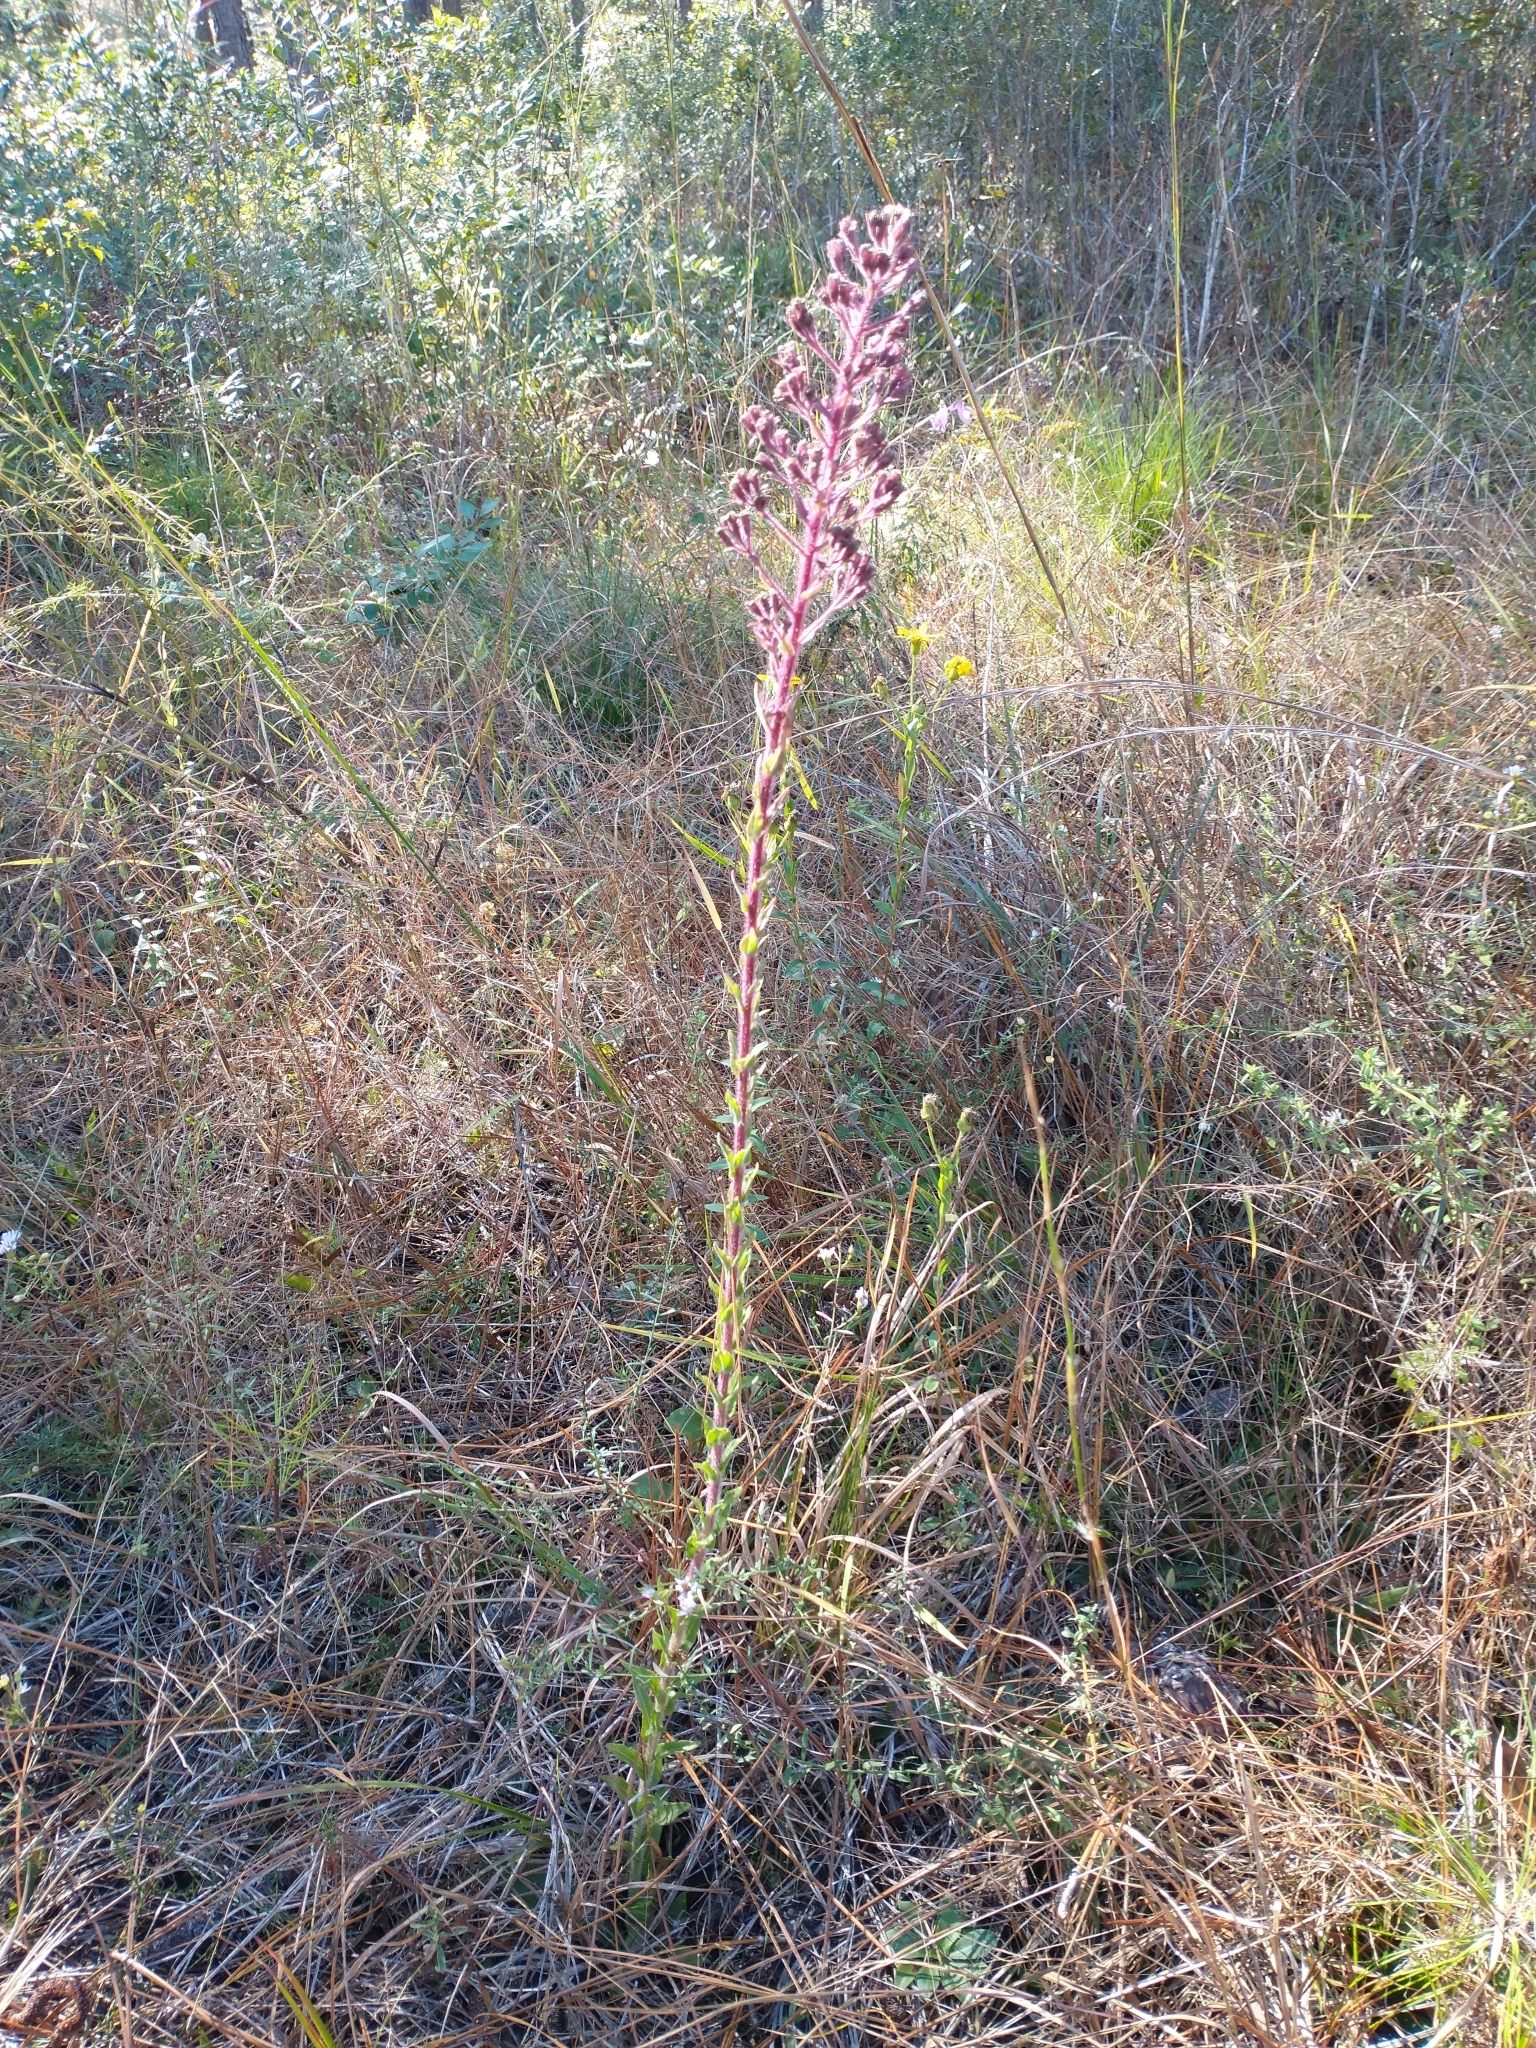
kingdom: Plantae
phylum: Tracheophyta
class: Magnoliopsida
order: Asterales
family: Asteraceae
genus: Carphephorus
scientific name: Carphephorus paniculatus
